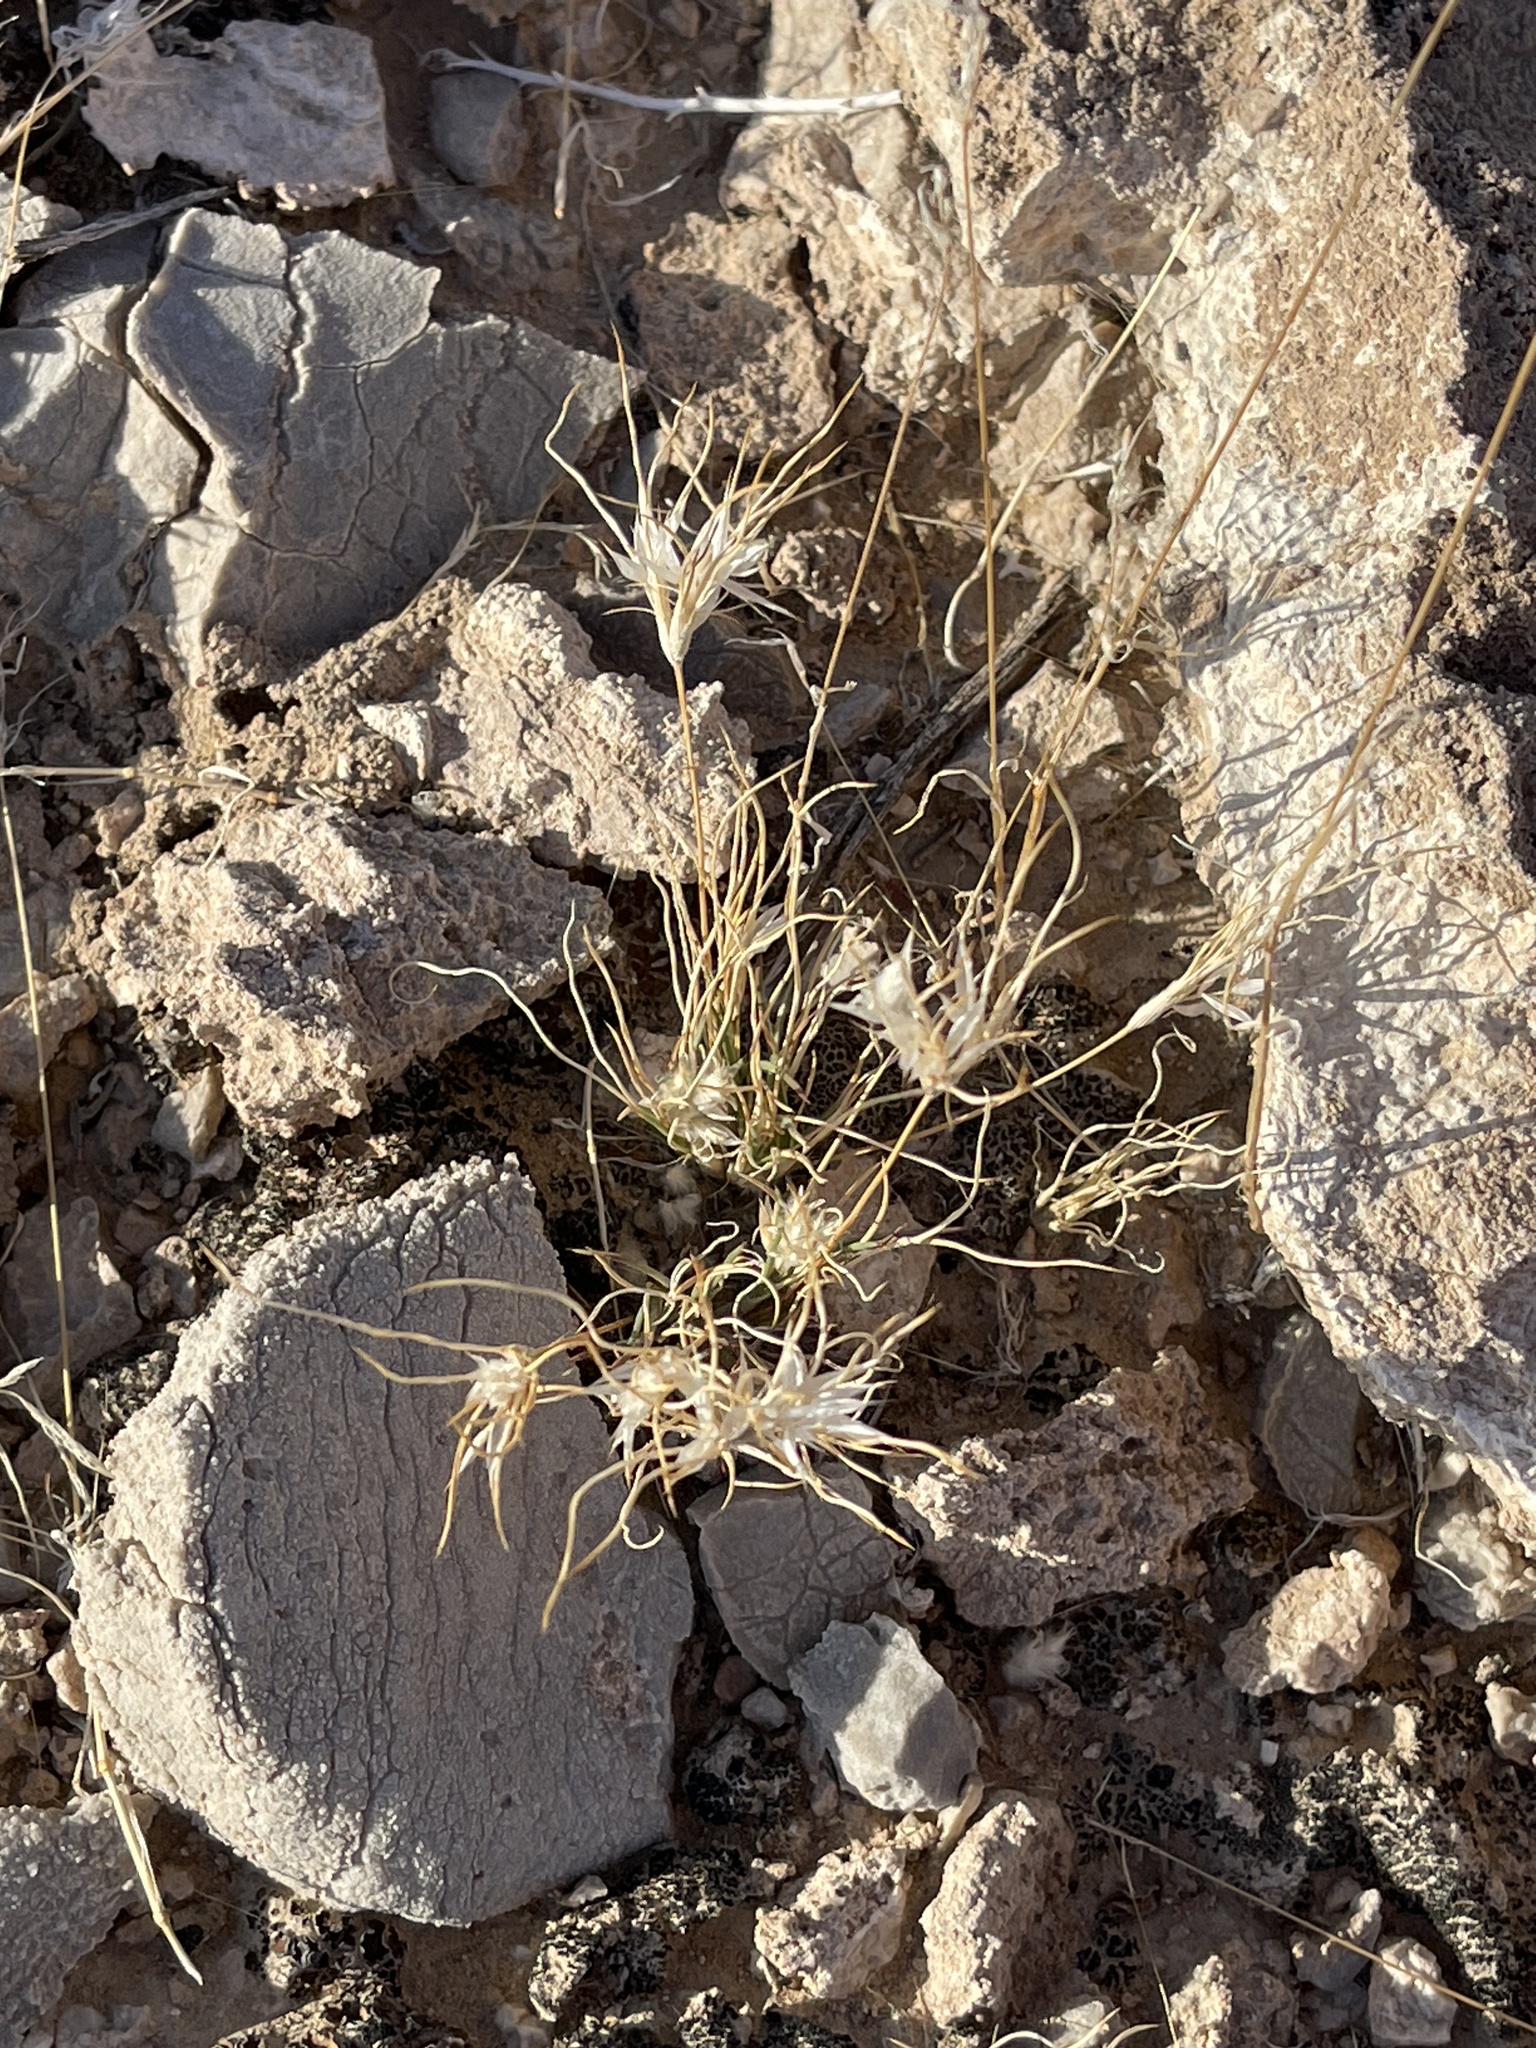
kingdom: Plantae
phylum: Tracheophyta
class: Liliopsida
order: Poales
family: Poaceae
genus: Dasyochloa
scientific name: Dasyochloa pulchella
